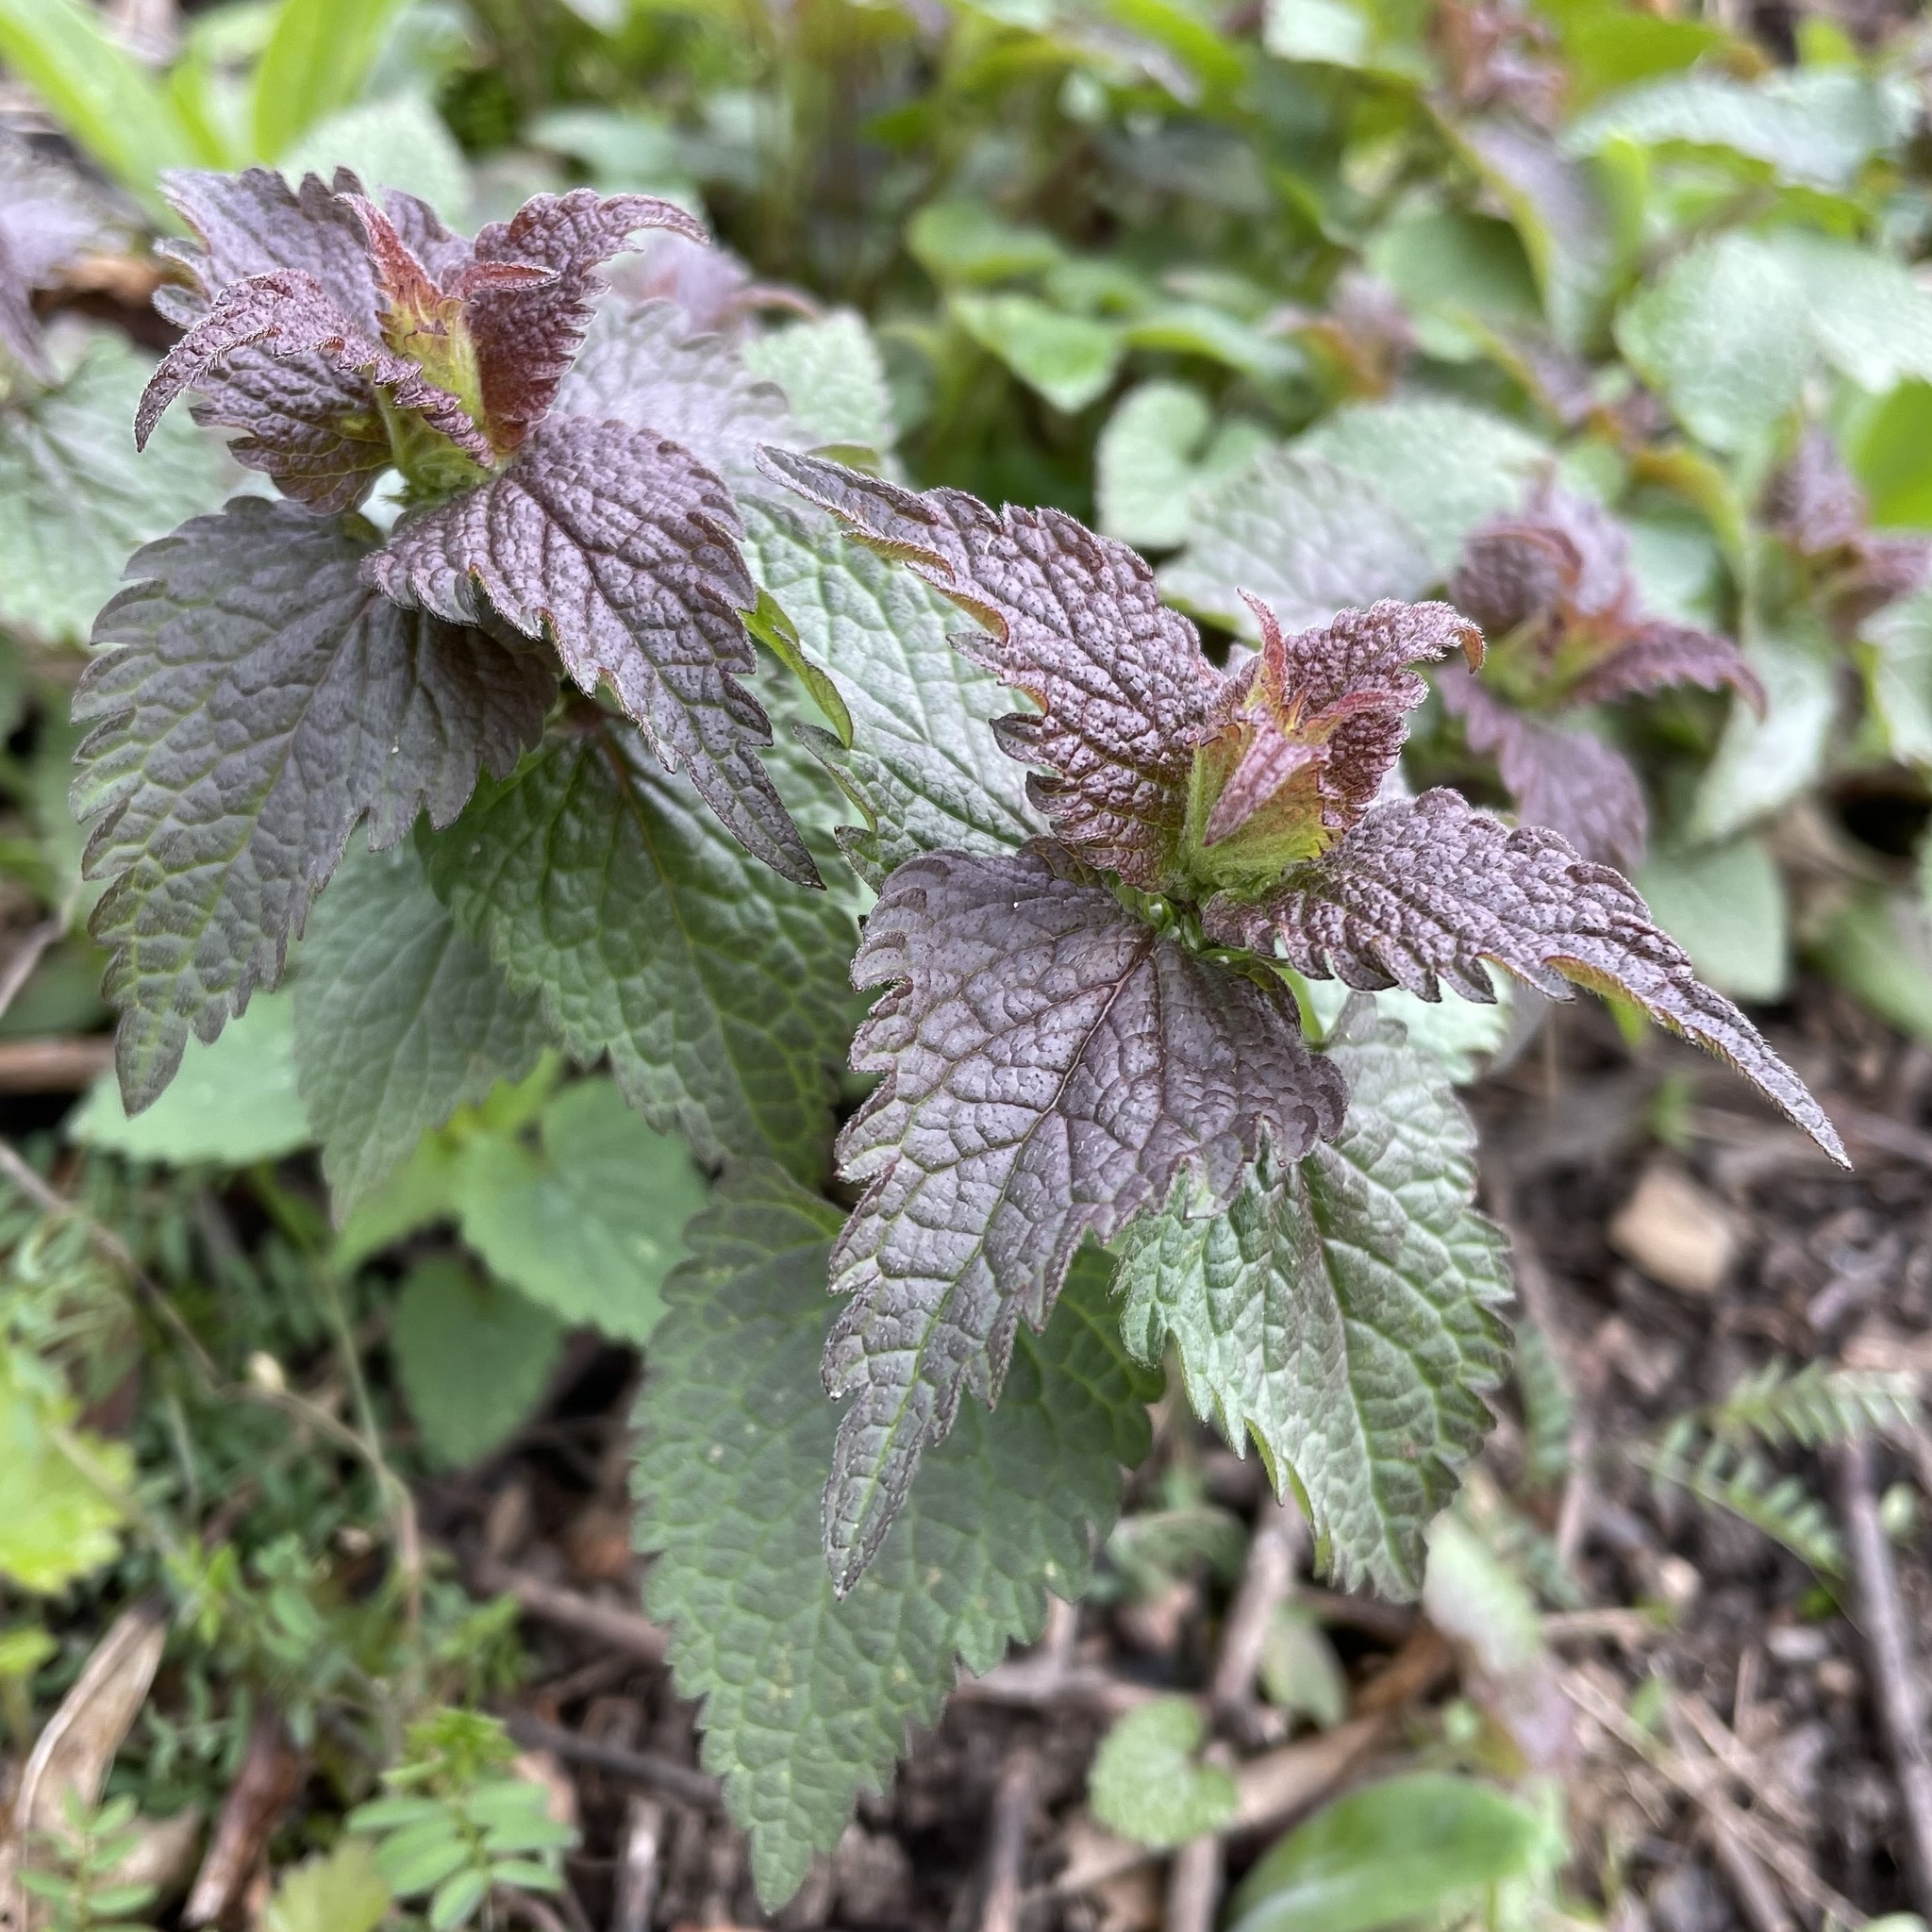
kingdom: Plantae
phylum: Tracheophyta
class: Magnoliopsida
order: Lamiales
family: Lamiaceae
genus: Lamium
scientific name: Lamium album
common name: White dead-nettle
